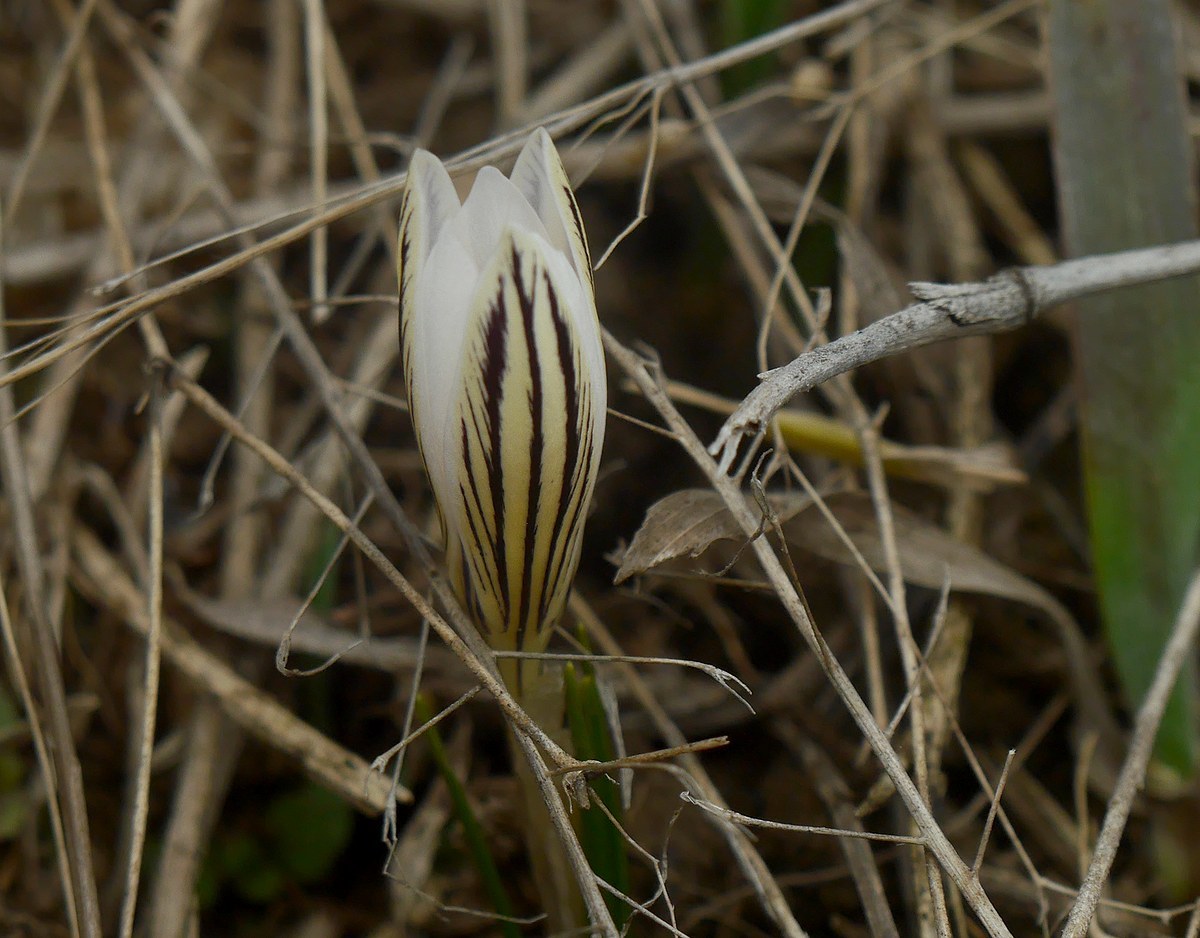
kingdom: Plantae
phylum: Tracheophyta
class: Liliopsida
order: Asparagales
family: Iridaceae
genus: Crocus
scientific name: Crocus reticulatus
